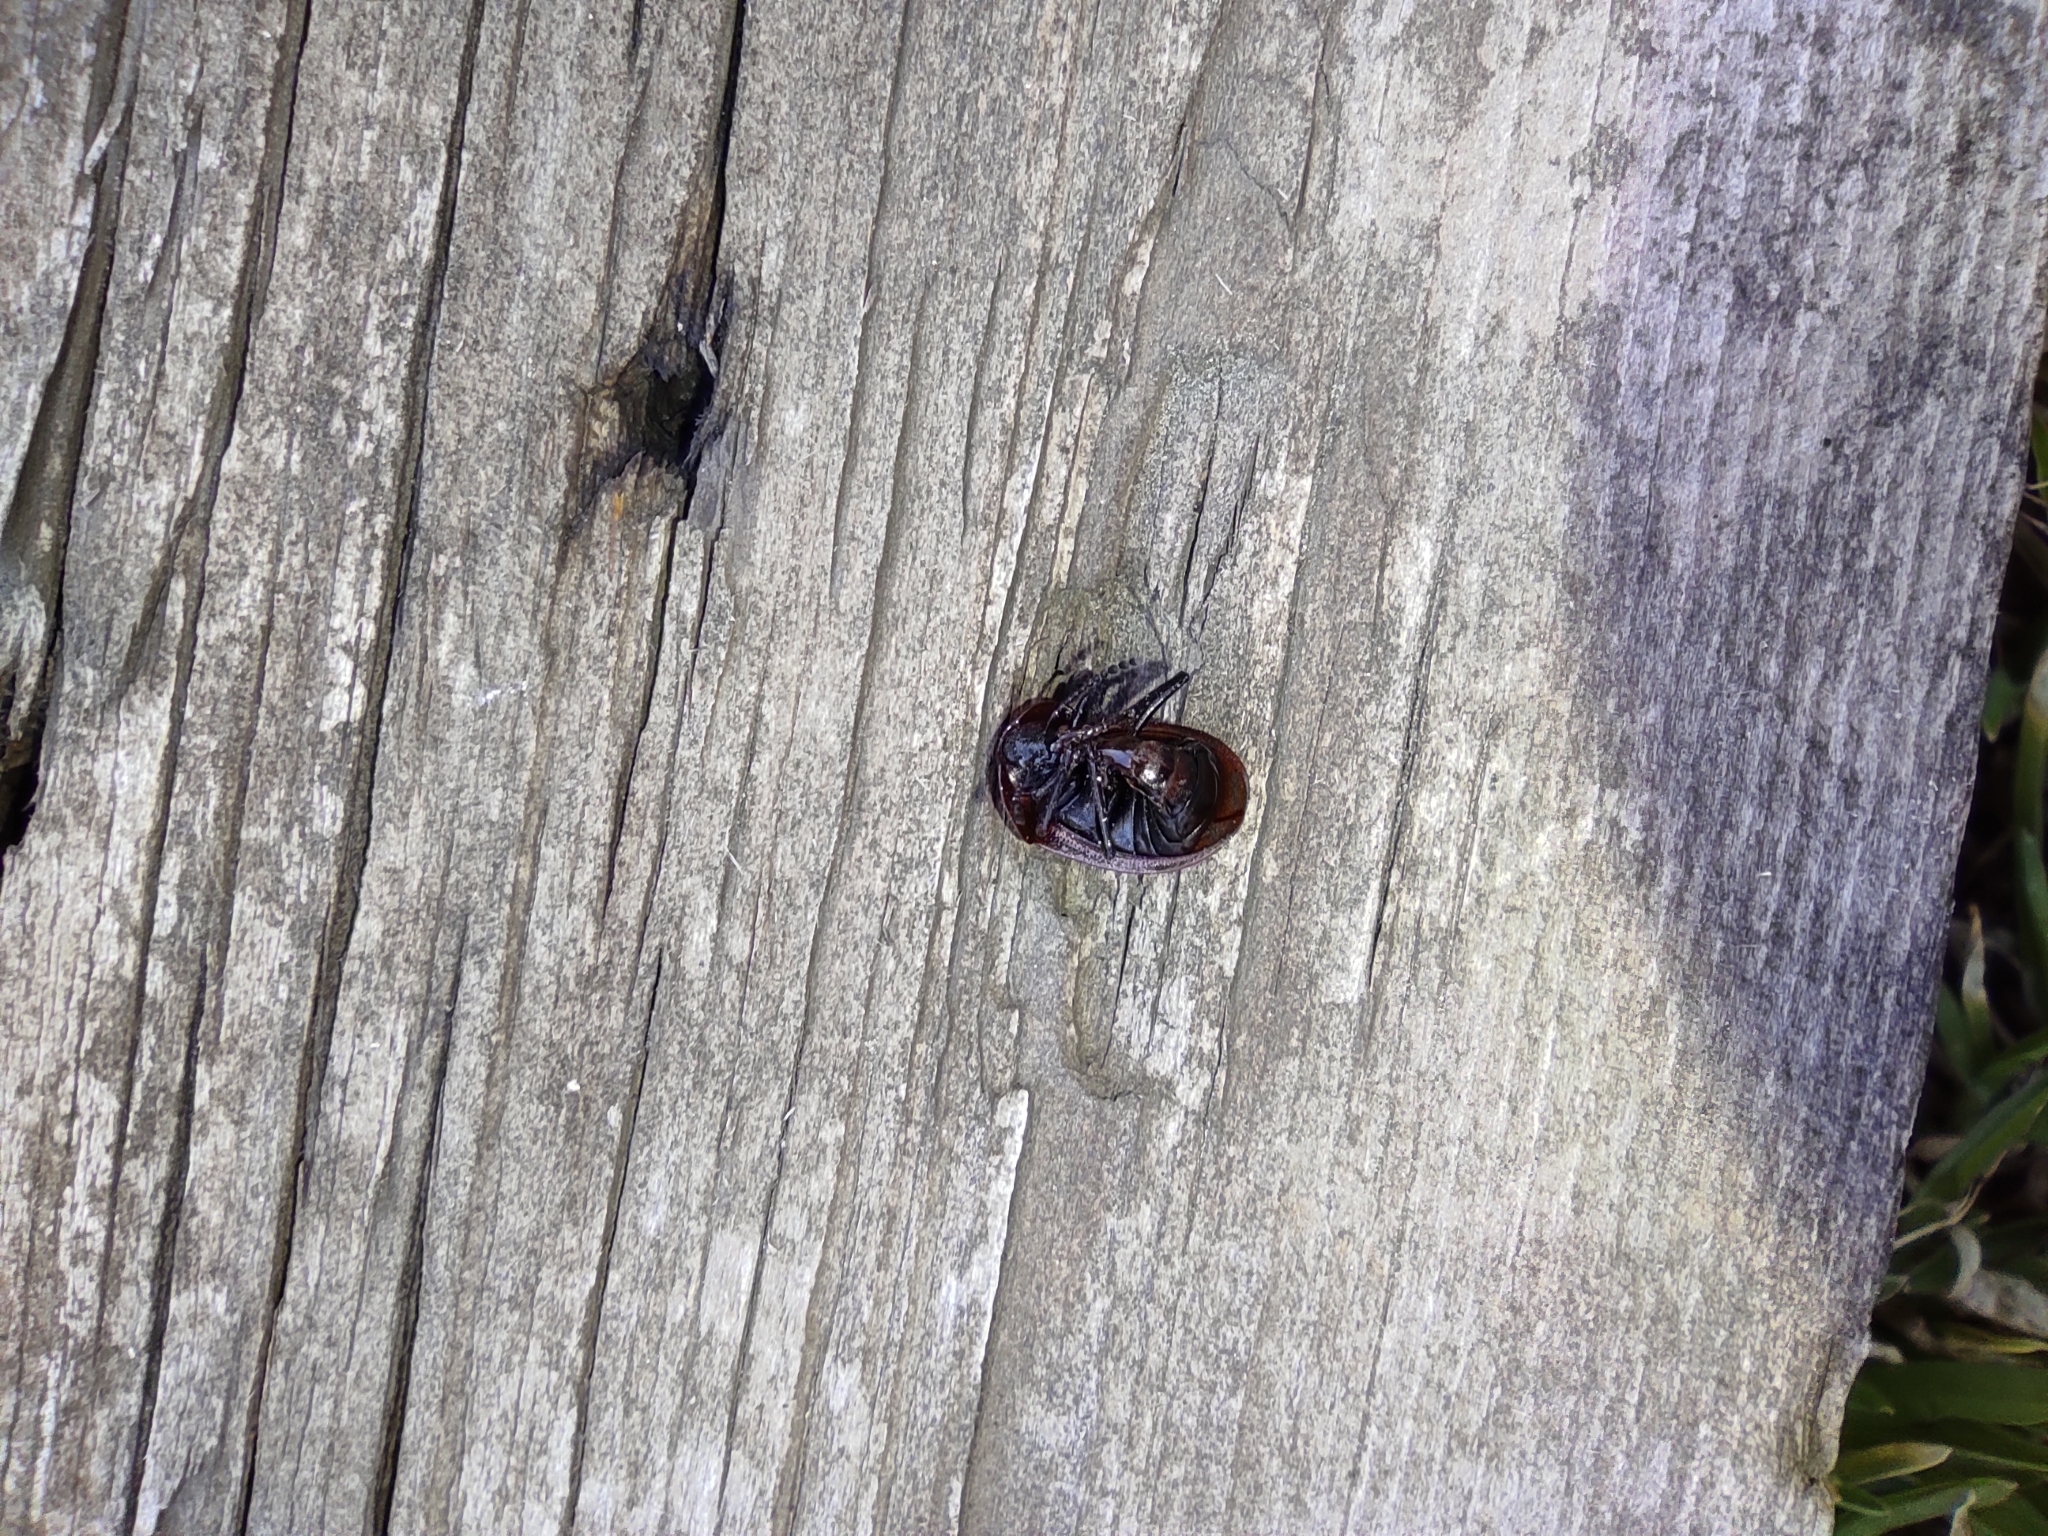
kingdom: Animalia
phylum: Arthropoda
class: Insecta
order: Coleoptera
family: Staphylinidae
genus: Silpha
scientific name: Silpha atrata
